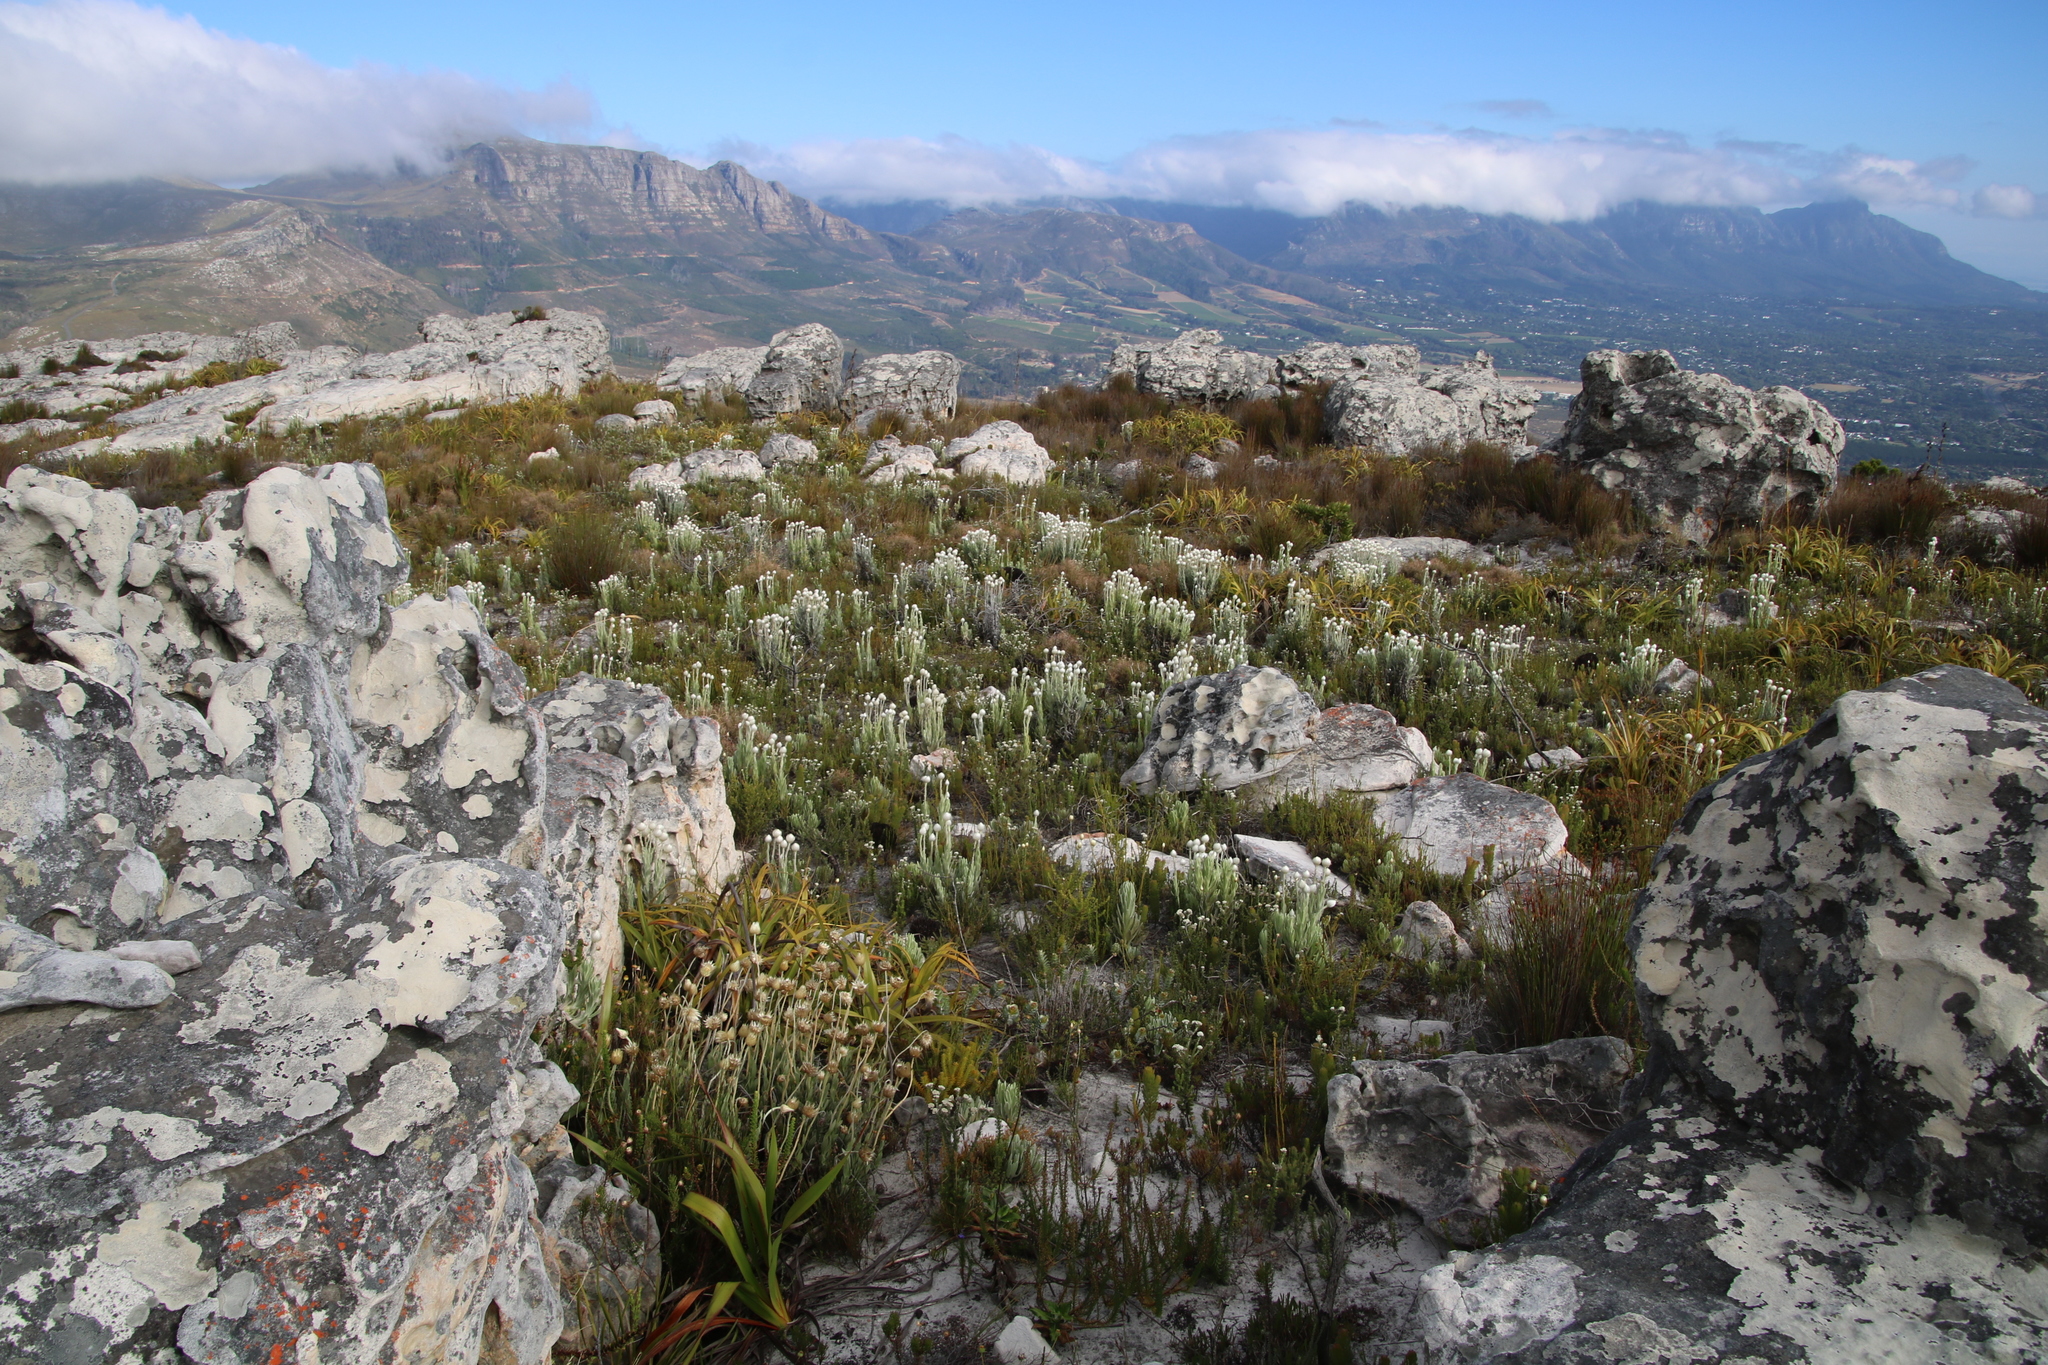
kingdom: Plantae
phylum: Tracheophyta
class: Magnoliopsida
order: Asterales
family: Asteraceae
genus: Syncarpha
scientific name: Syncarpha vestita
